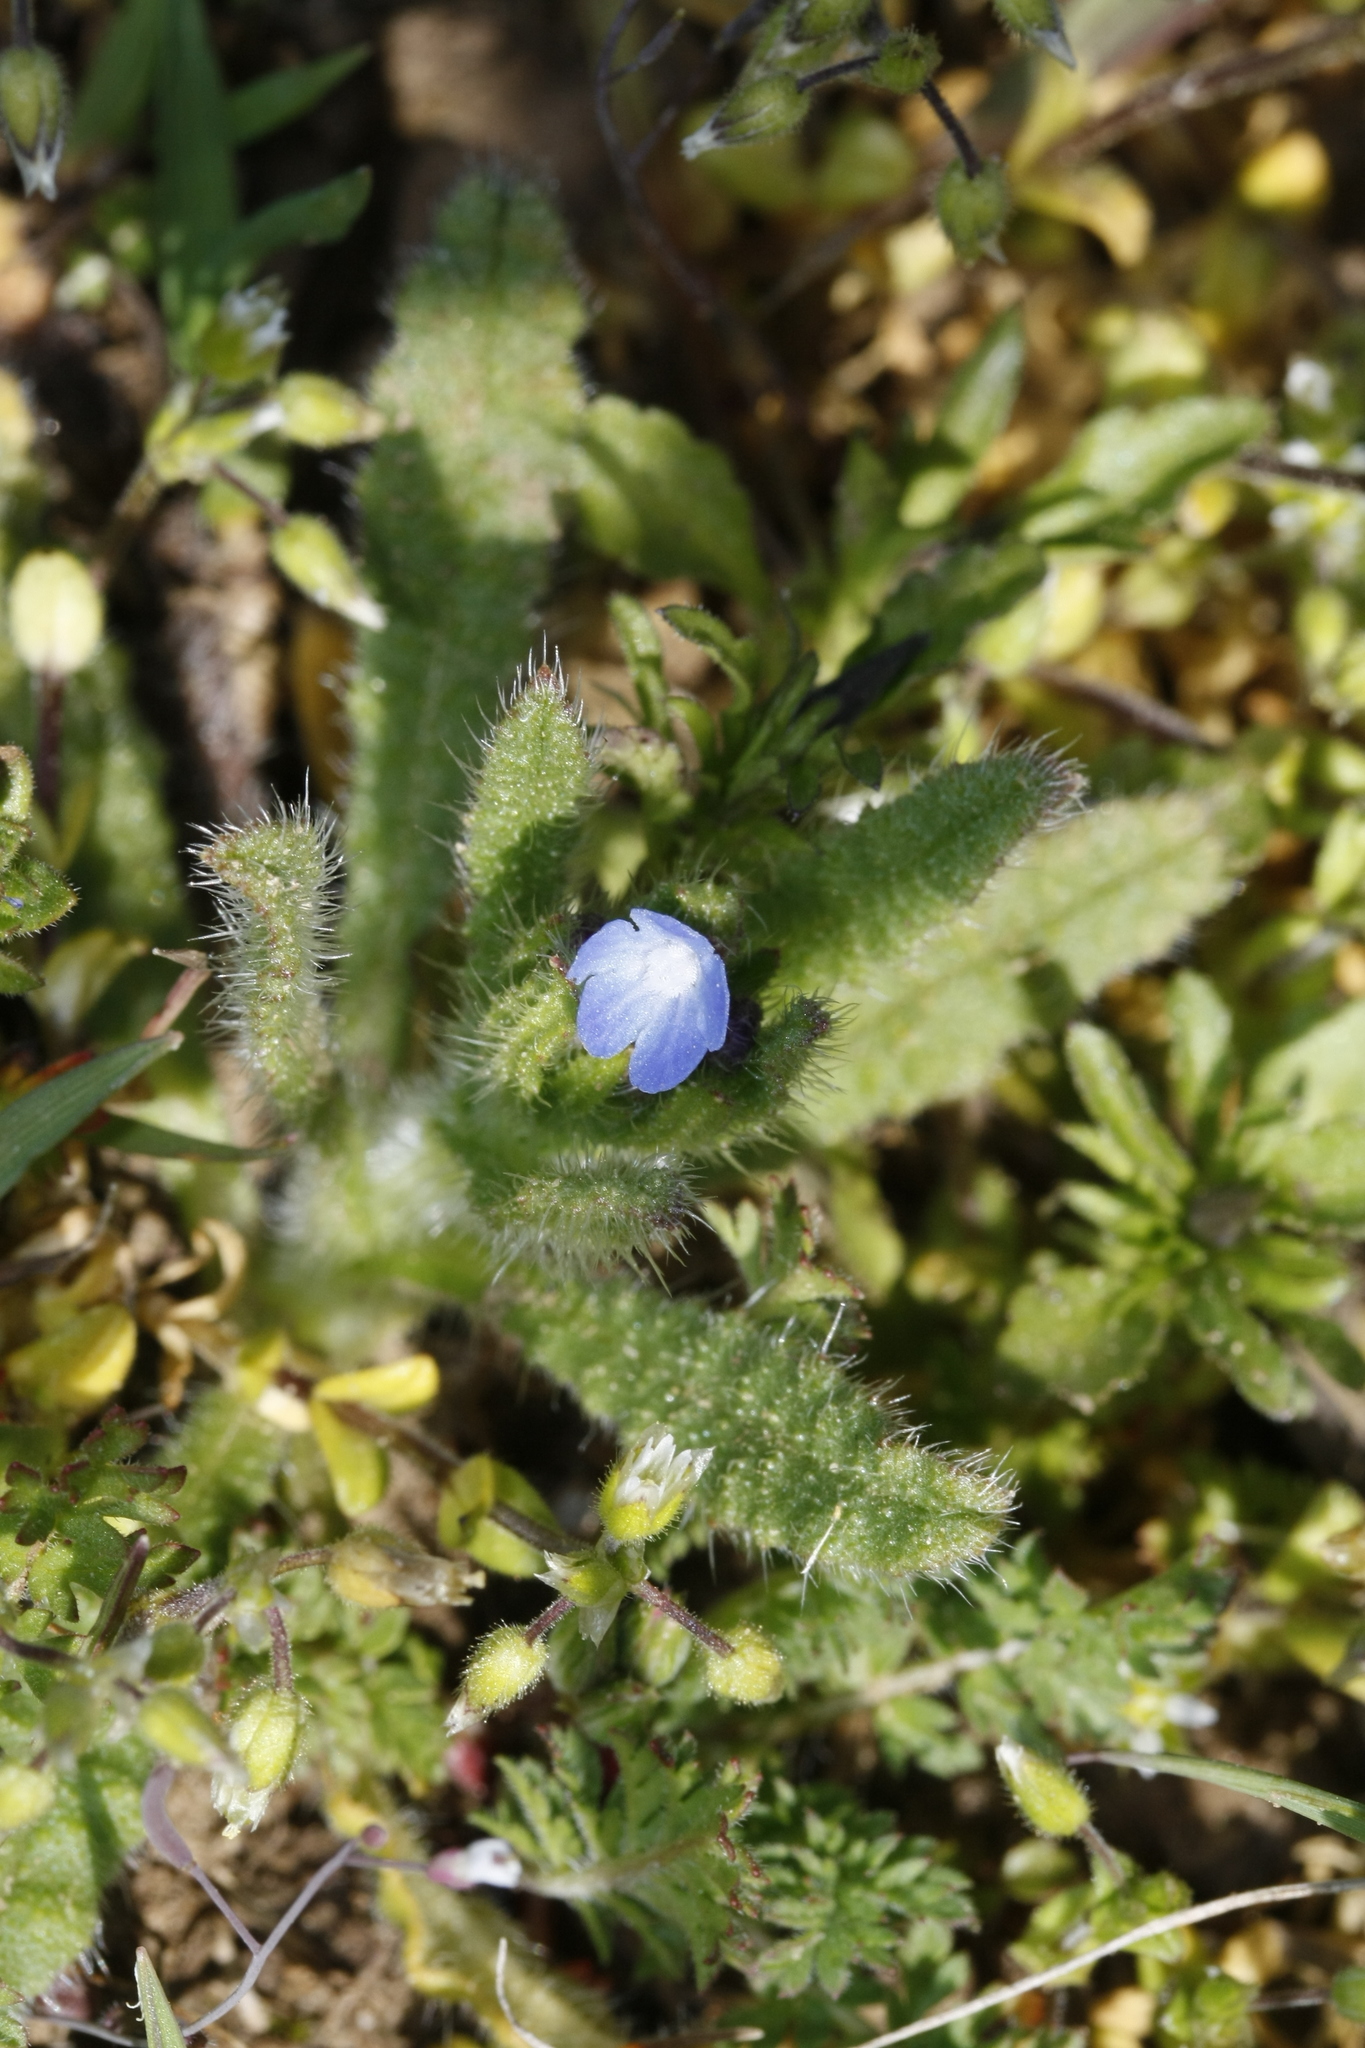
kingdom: Plantae
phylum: Tracheophyta
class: Magnoliopsida
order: Boraginales
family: Boraginaceae
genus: Lycopsis
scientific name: Lycopsis arvensis
